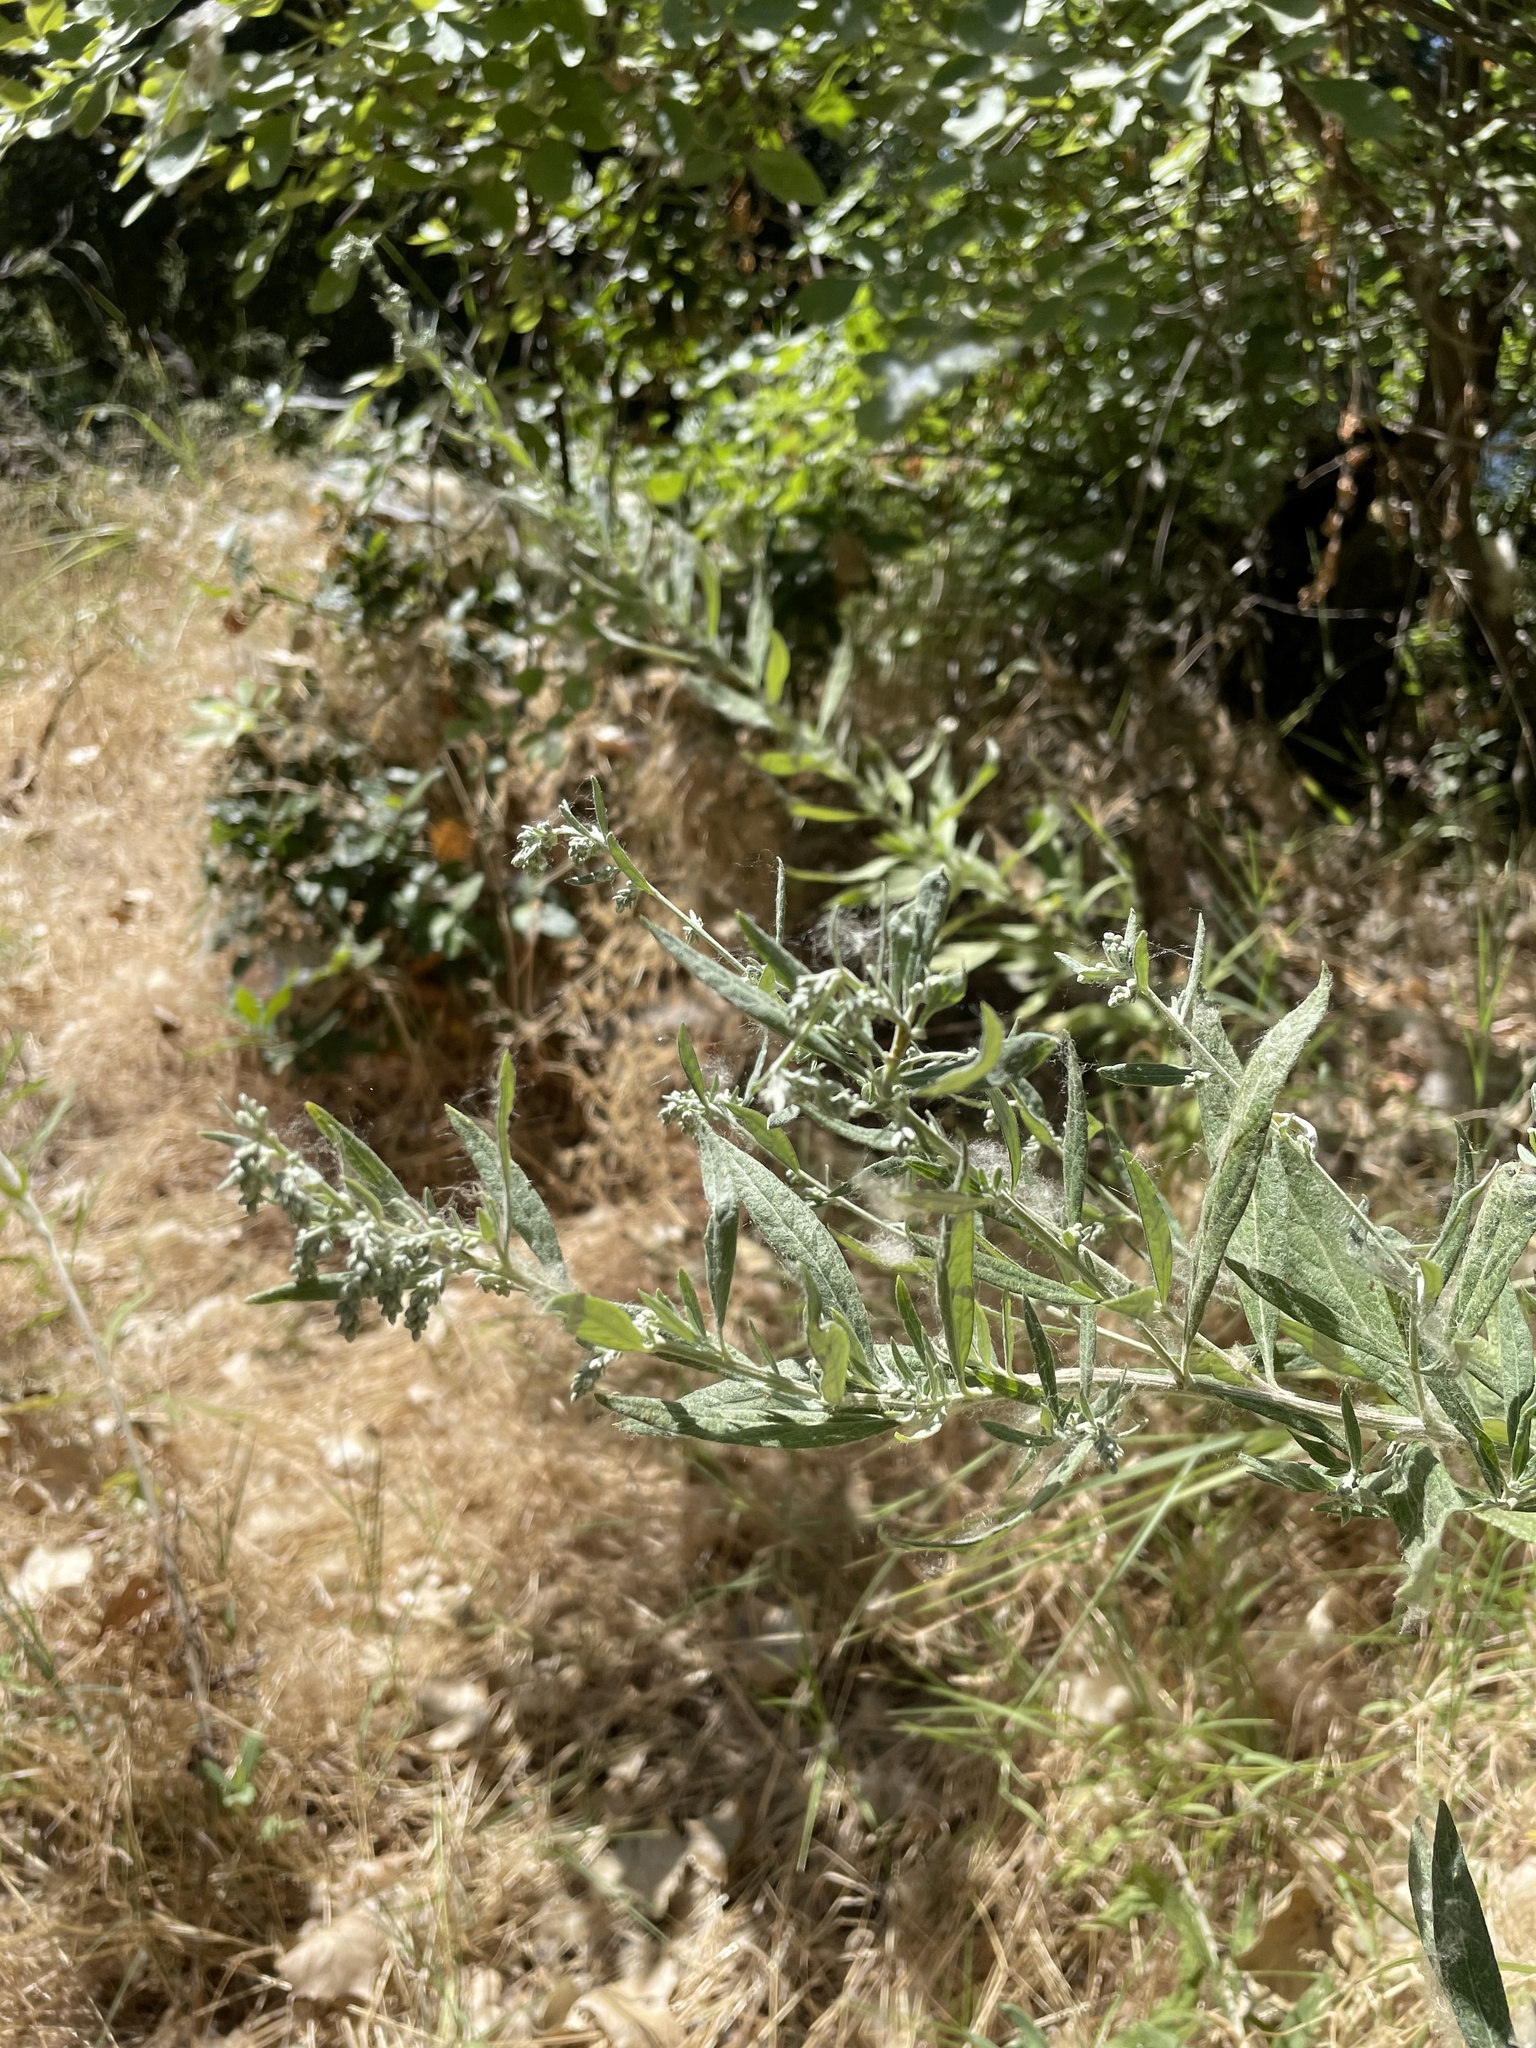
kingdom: Plantae
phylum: Tracheophyta
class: Magnoliopsida
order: Asterales
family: Asteraceae
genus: Artemisia
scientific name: Artemisia douglasiana
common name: Northwest mugwort
